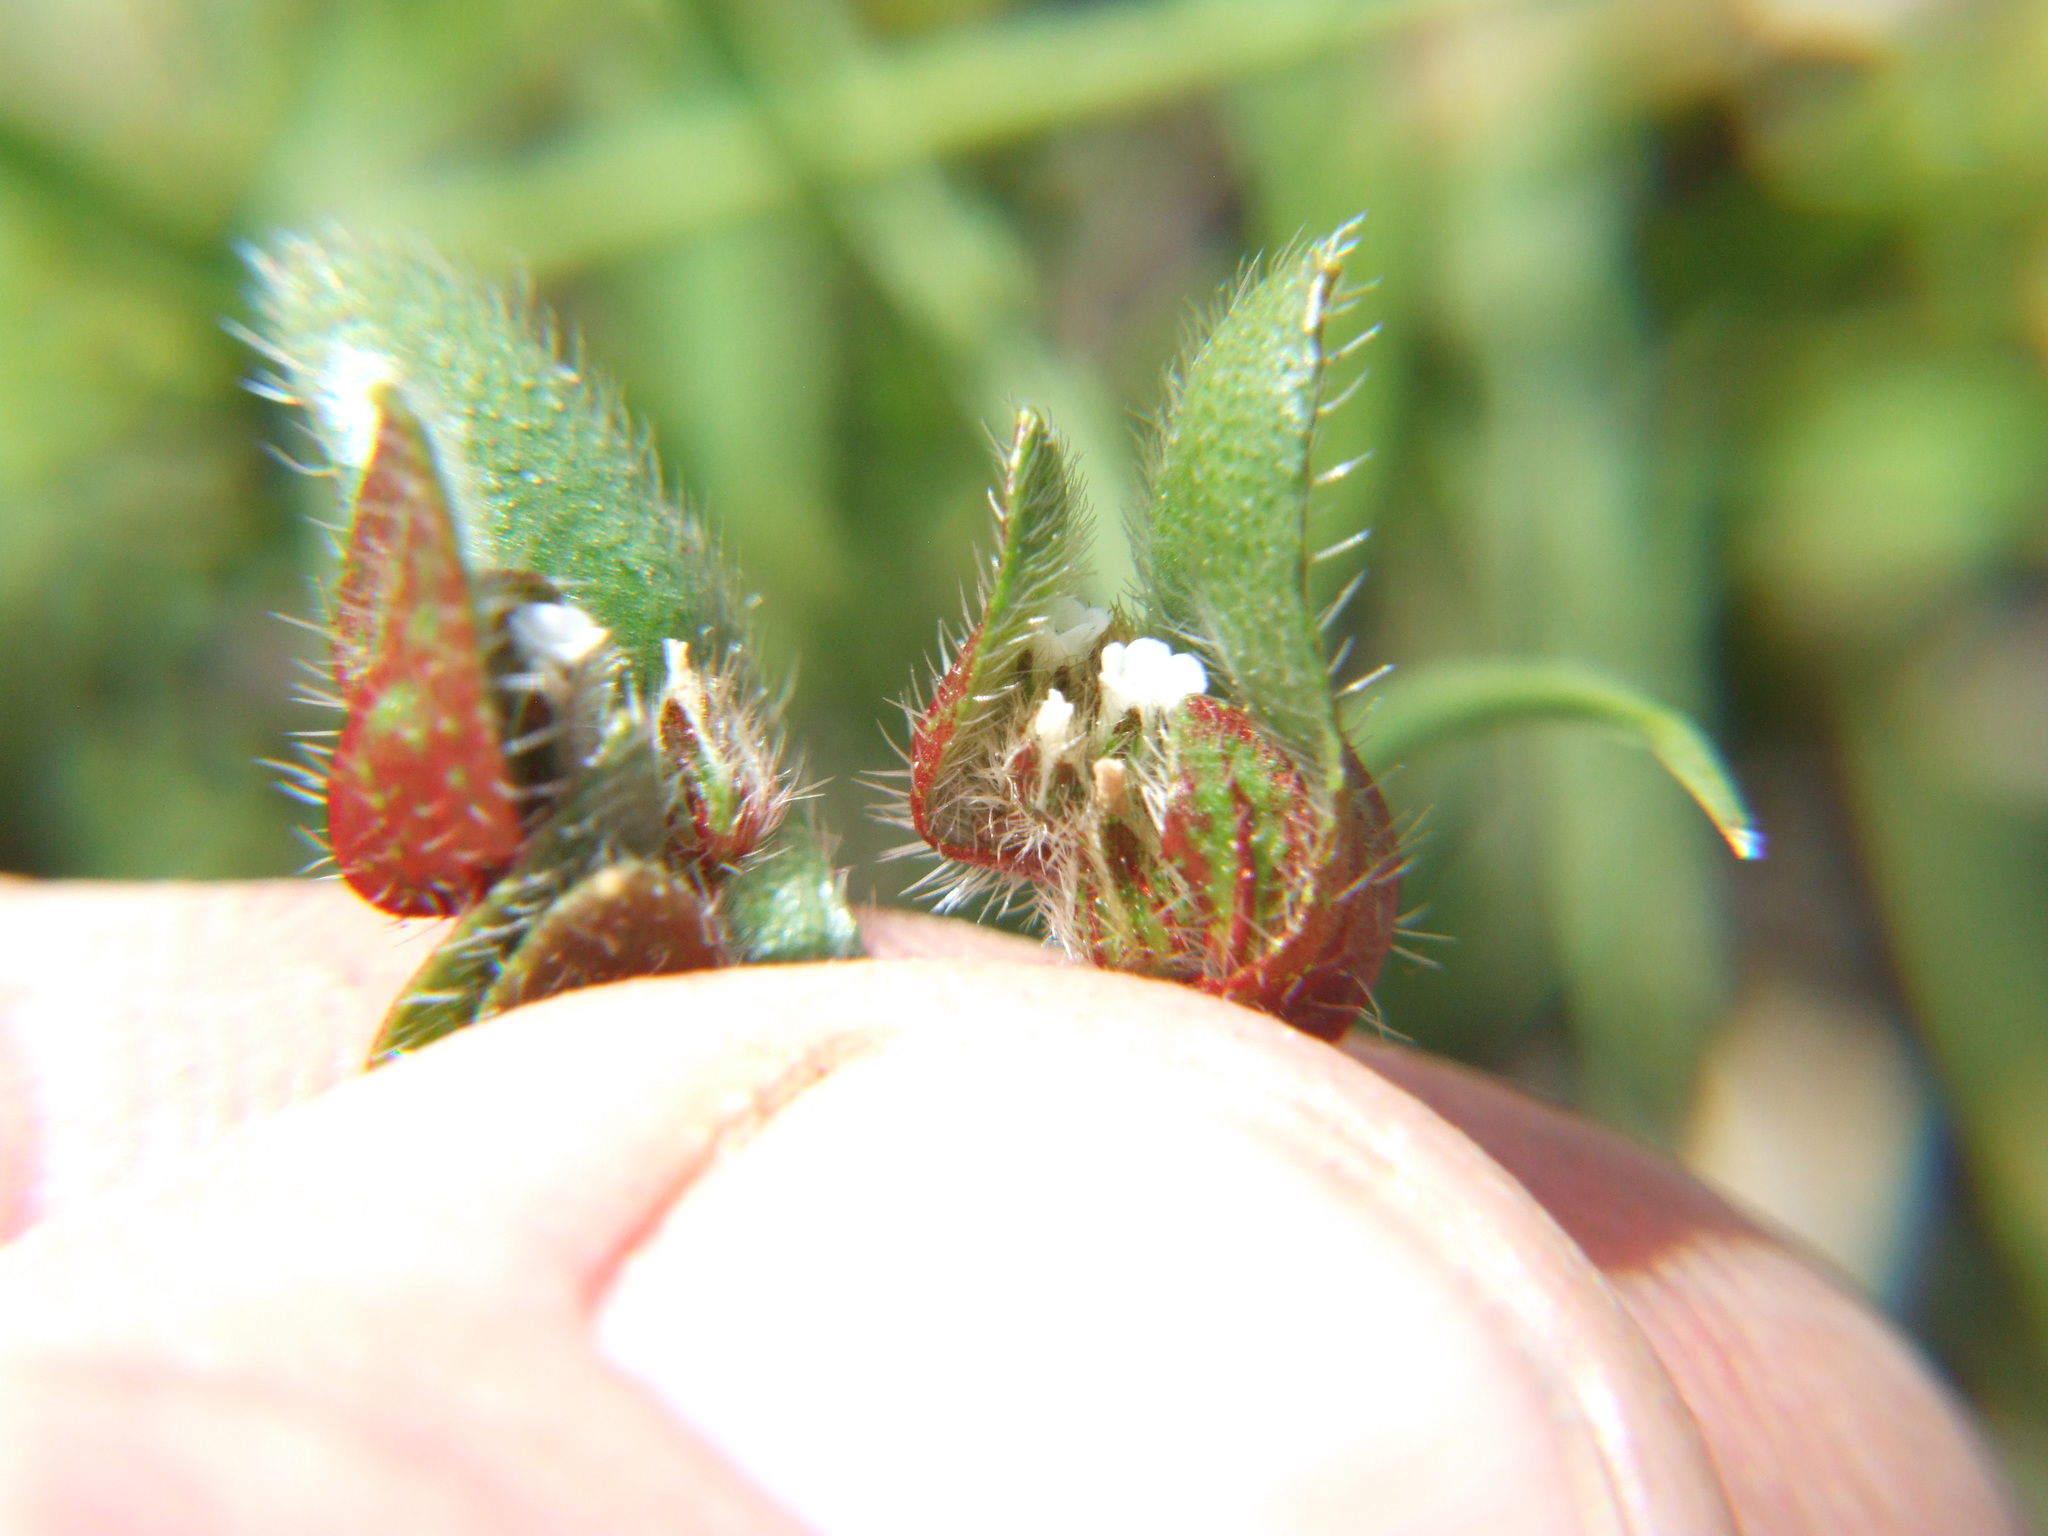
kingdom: Plantae
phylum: Tracheophyta
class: Magnoliopsida
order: Boraginales
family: Boraginaceae
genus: Plagiobothrys
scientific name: Plagiobothrys myosotoides
